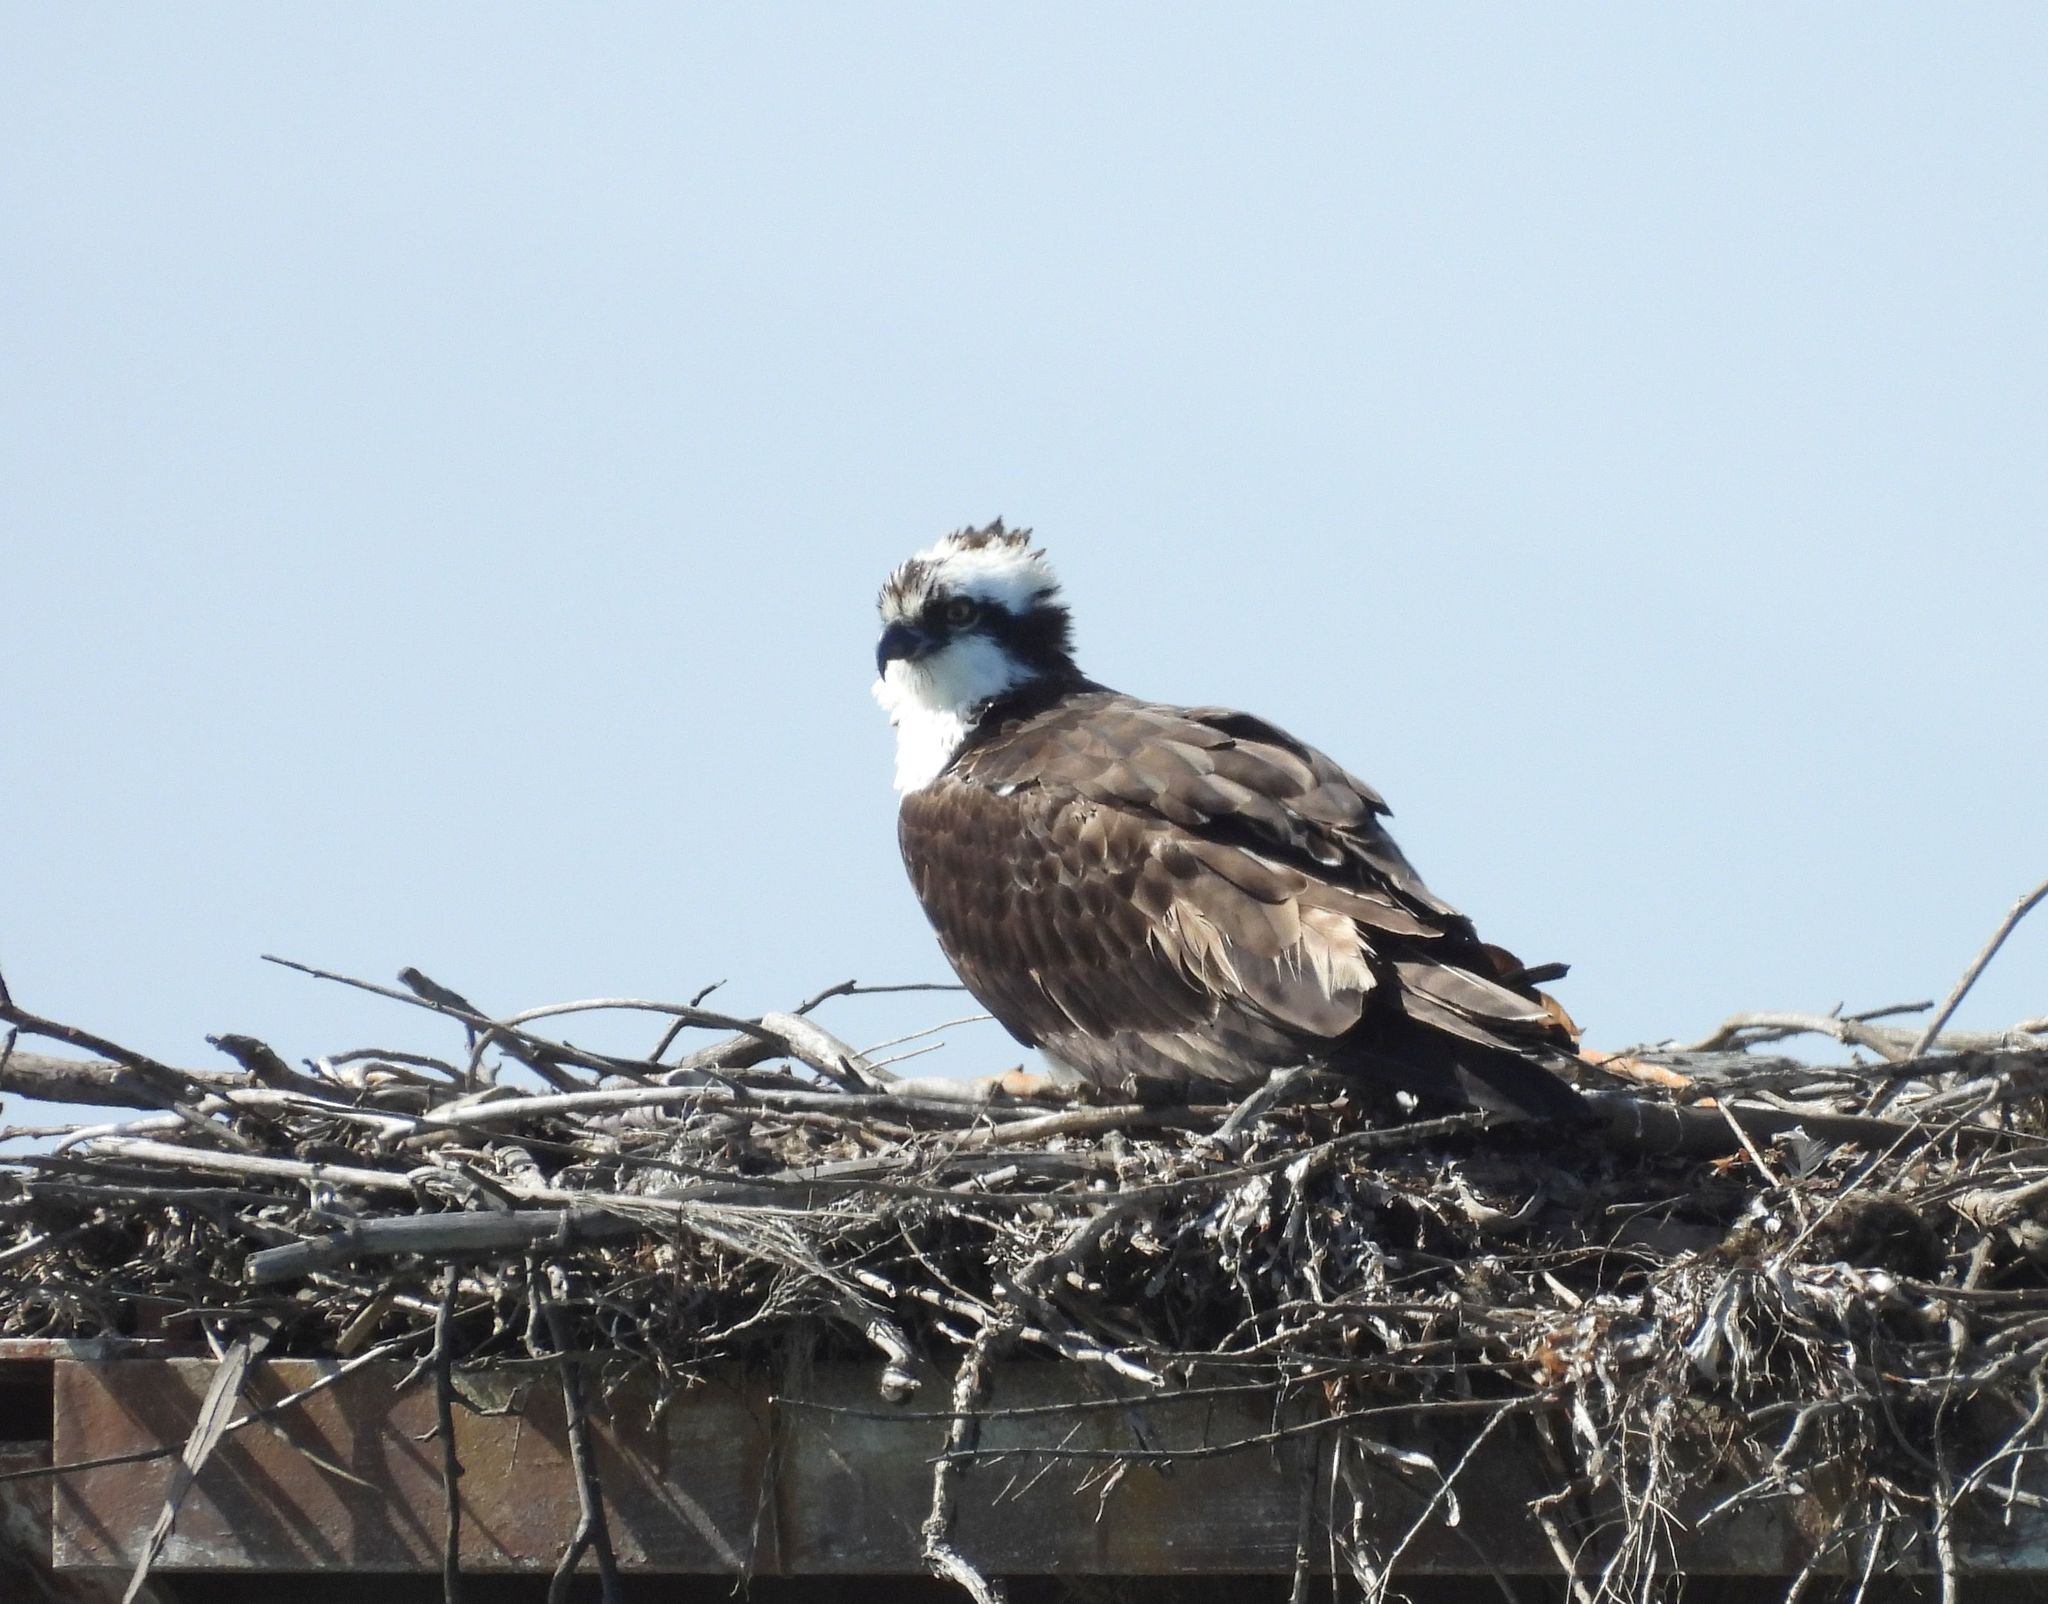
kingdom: Animalia
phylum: Chordata
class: Aves
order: Accipitriformes
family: Pandionidae
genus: Pandion
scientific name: Pandion haliaetus
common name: Osprey
